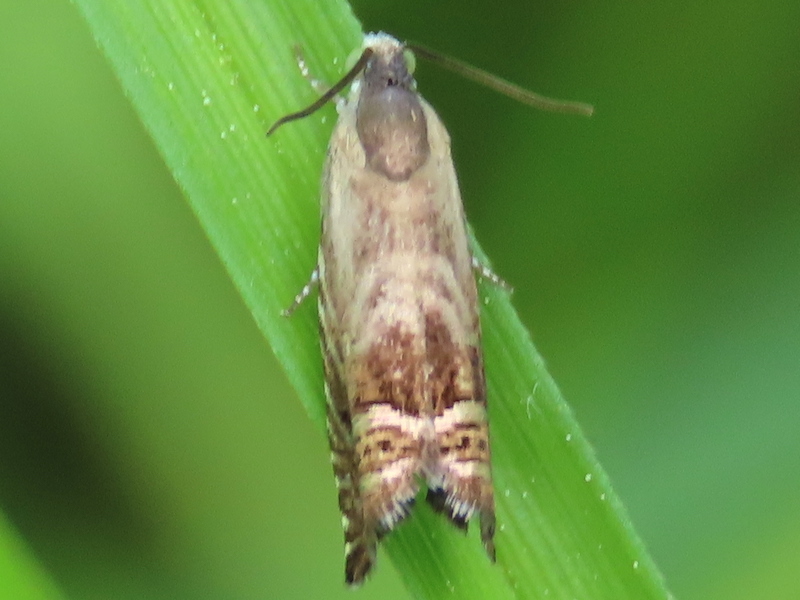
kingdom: Animalia
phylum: Arthropoda
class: Insecta
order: Lepidoptera
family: Tortricidae
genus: Grapholita
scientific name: Grapholita
